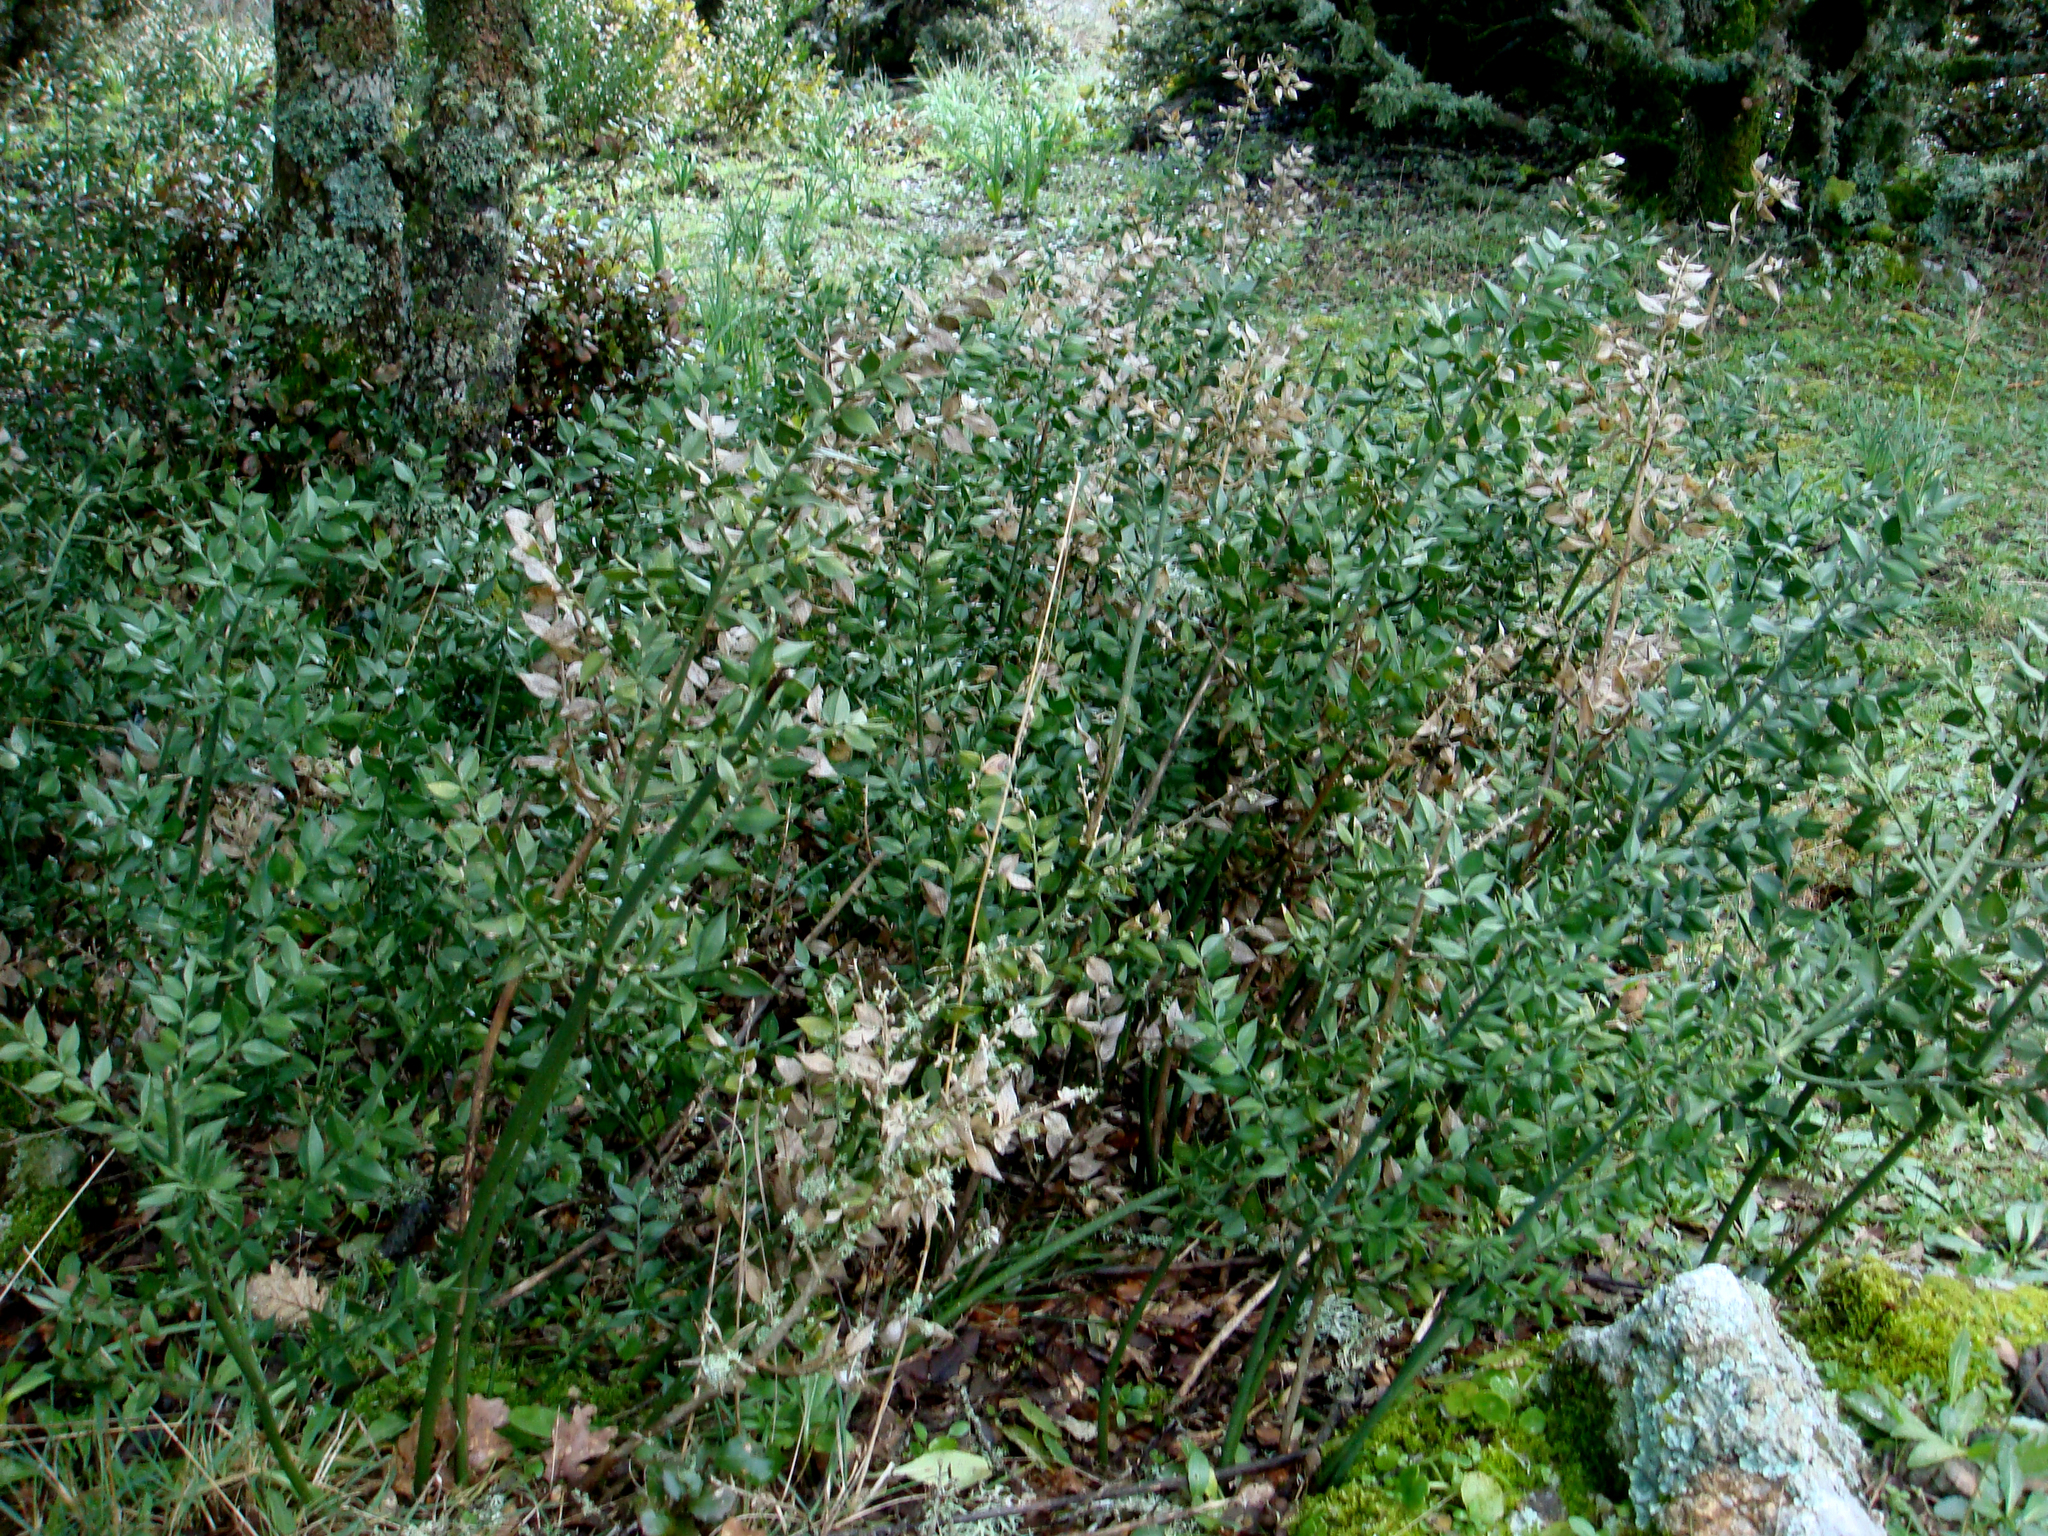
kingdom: Plantae
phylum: Tracheophyta
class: Liliopsida
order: Asparagales
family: Asparagaceae
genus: Ruscus
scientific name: Ruscus aculeatus
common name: Butcher's-broom
